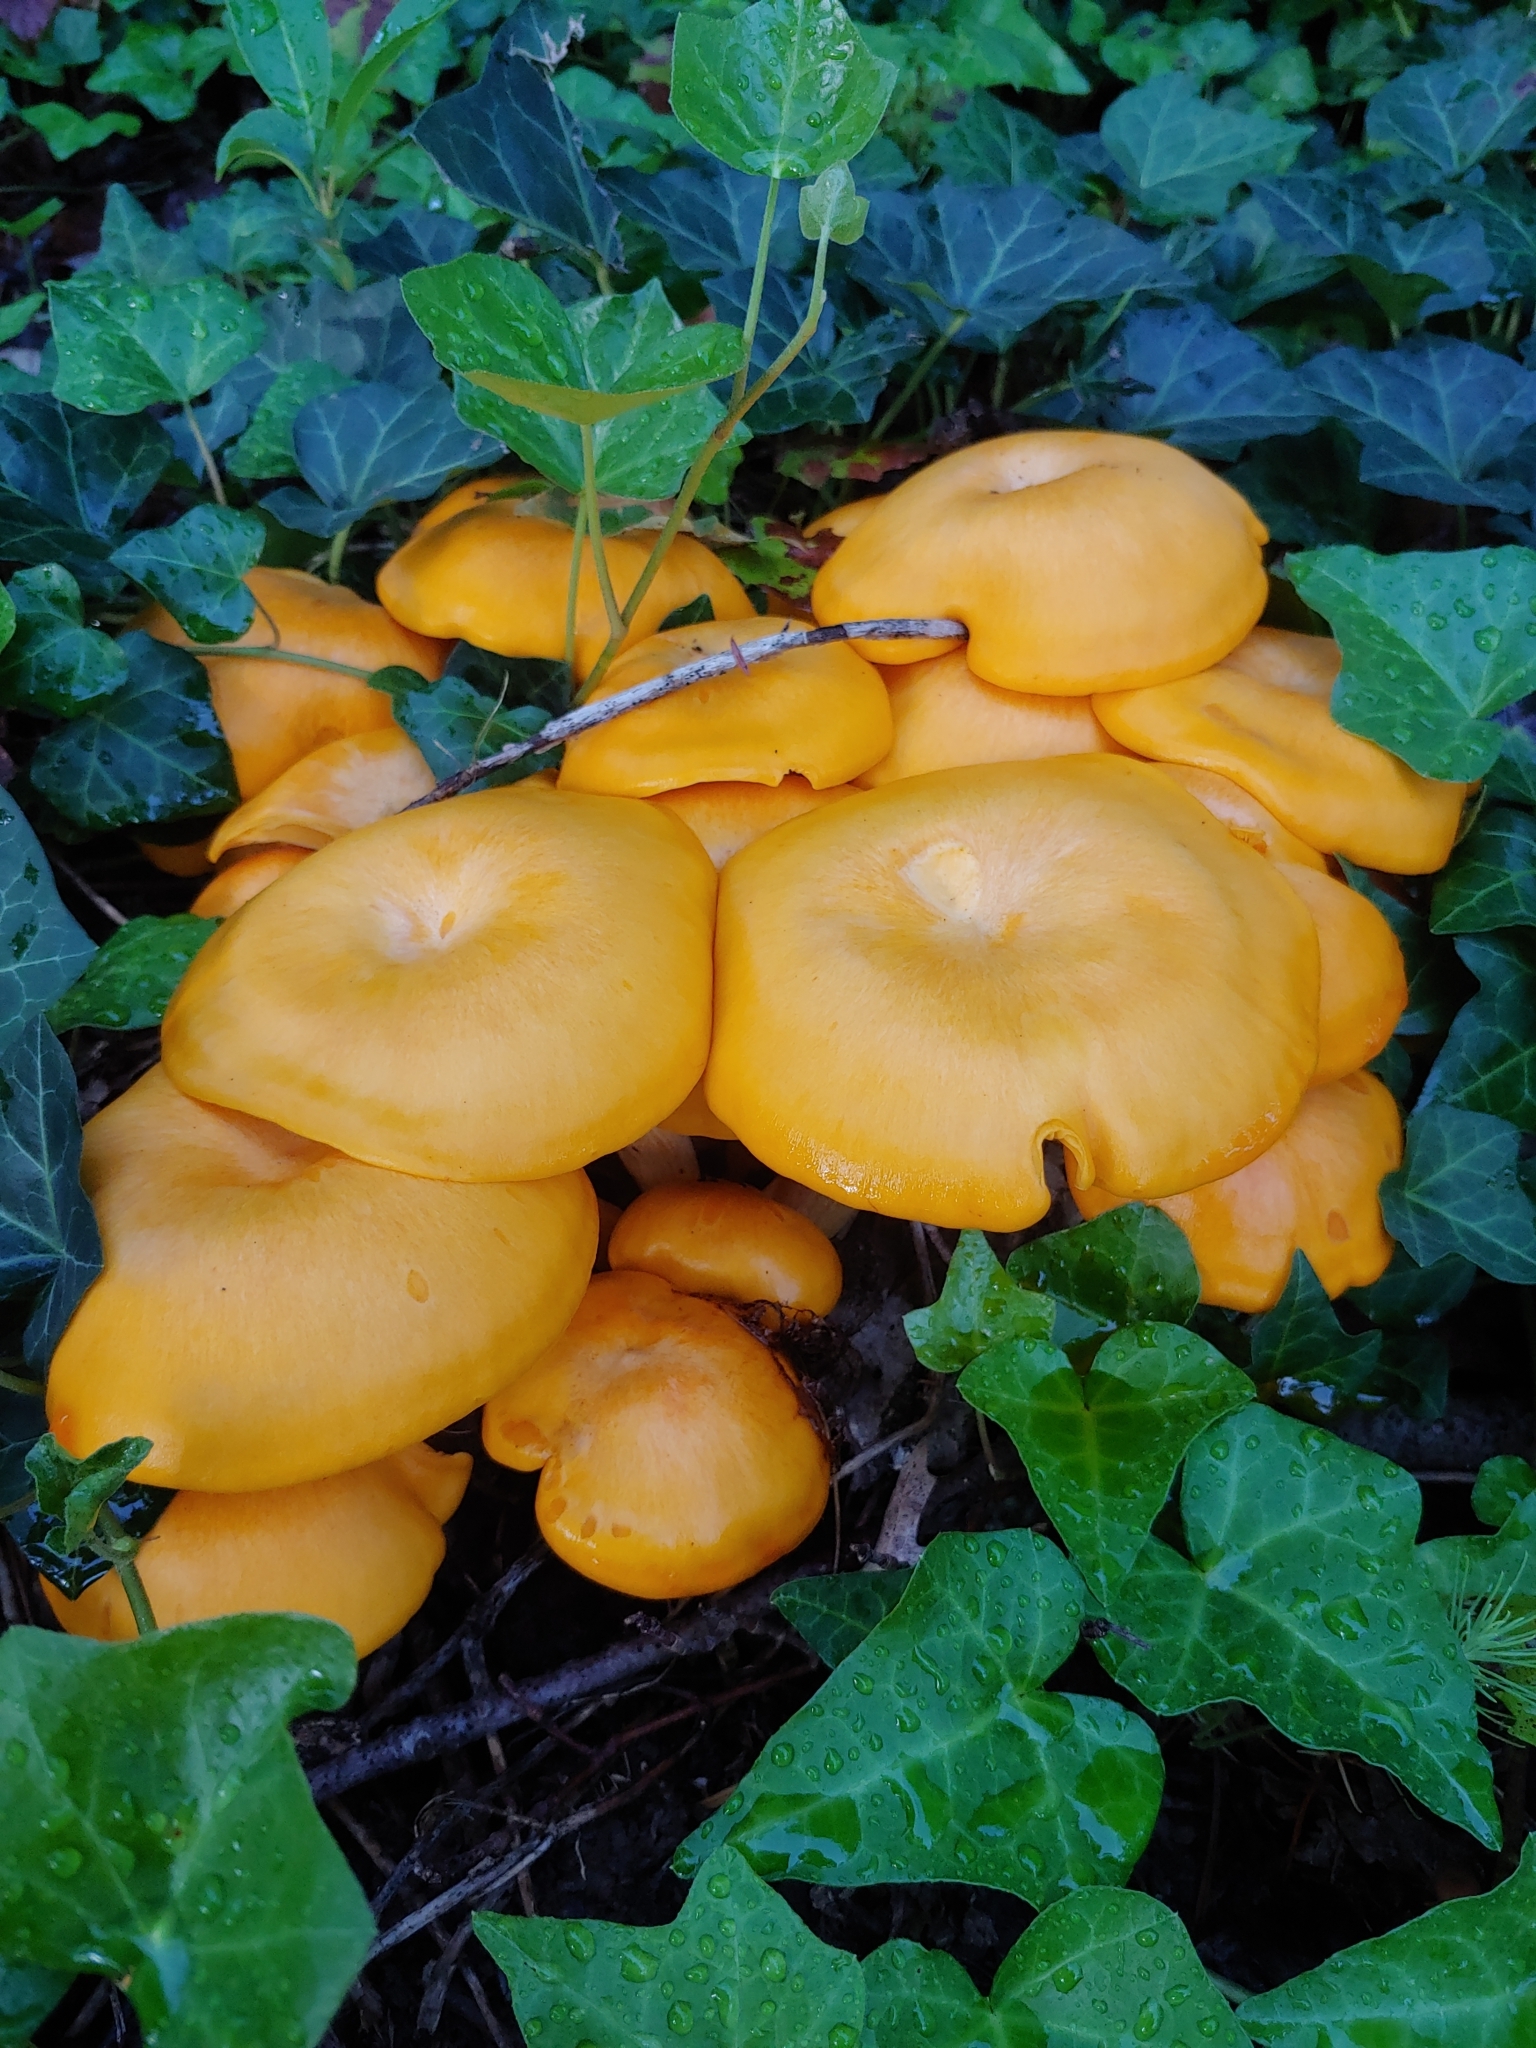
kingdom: Fungi
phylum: Basidiomycota
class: Agaricomycetes
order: Agaricales
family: Omphalotaceae
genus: Omphalotus
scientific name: Omphalotus illudens
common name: Jack o lantern
